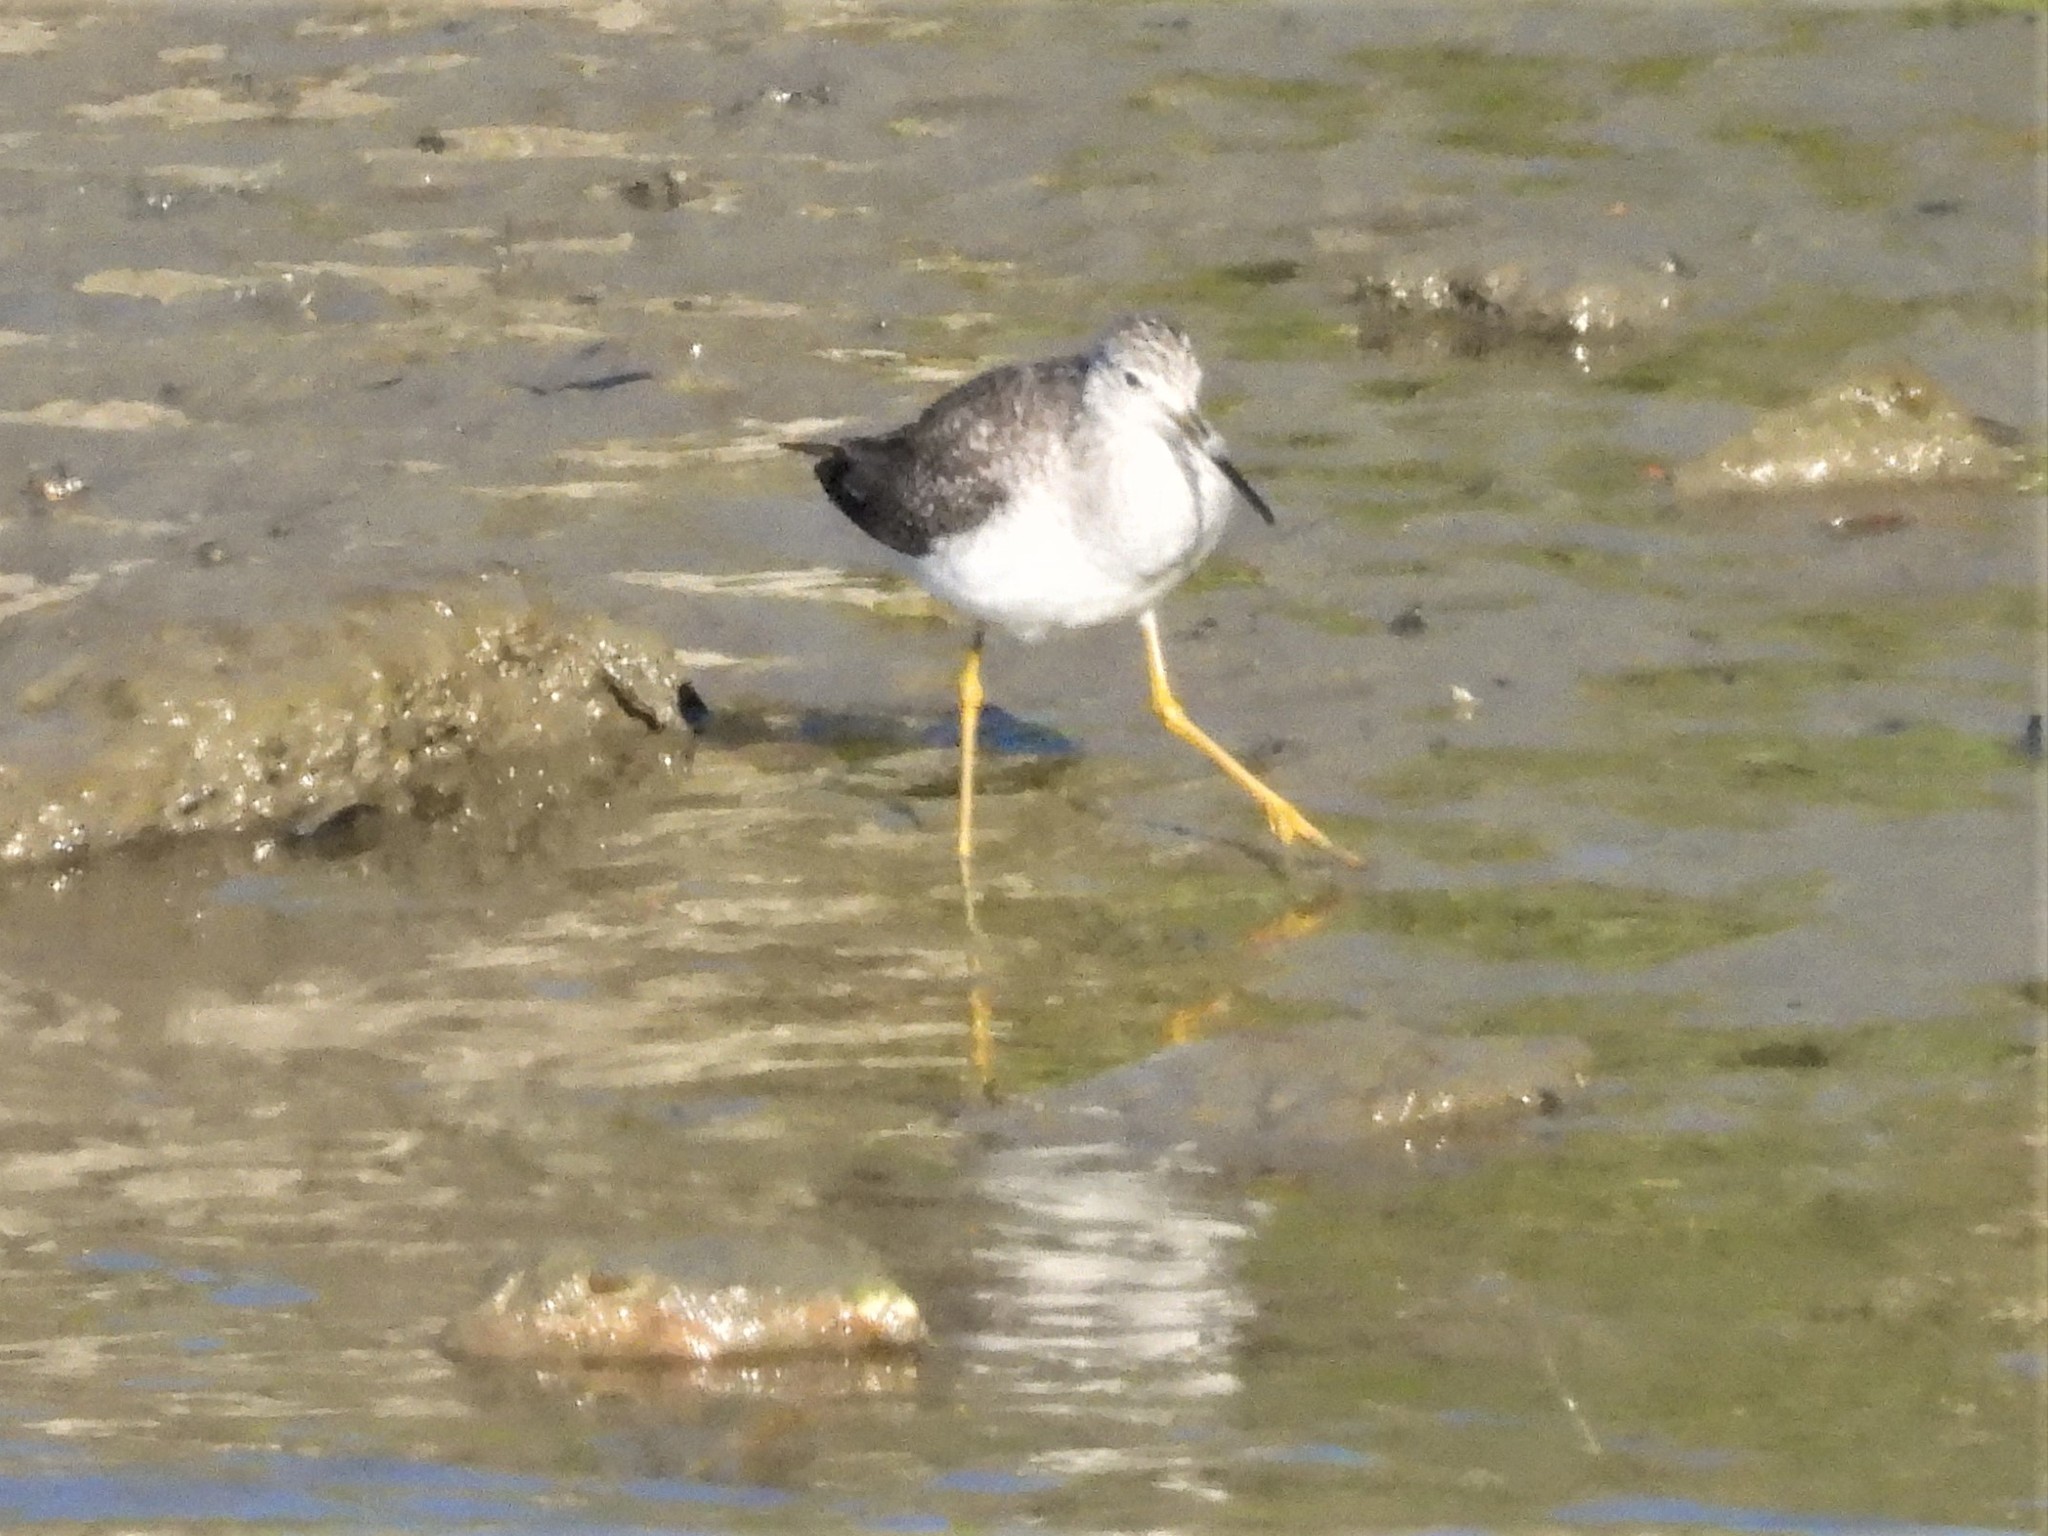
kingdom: Animalia
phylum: Chordata
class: Aves
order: Charadriiformes
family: Scolopacidae
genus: Tringa
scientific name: Tringa melanoleuca
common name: Greater yellowlegs
